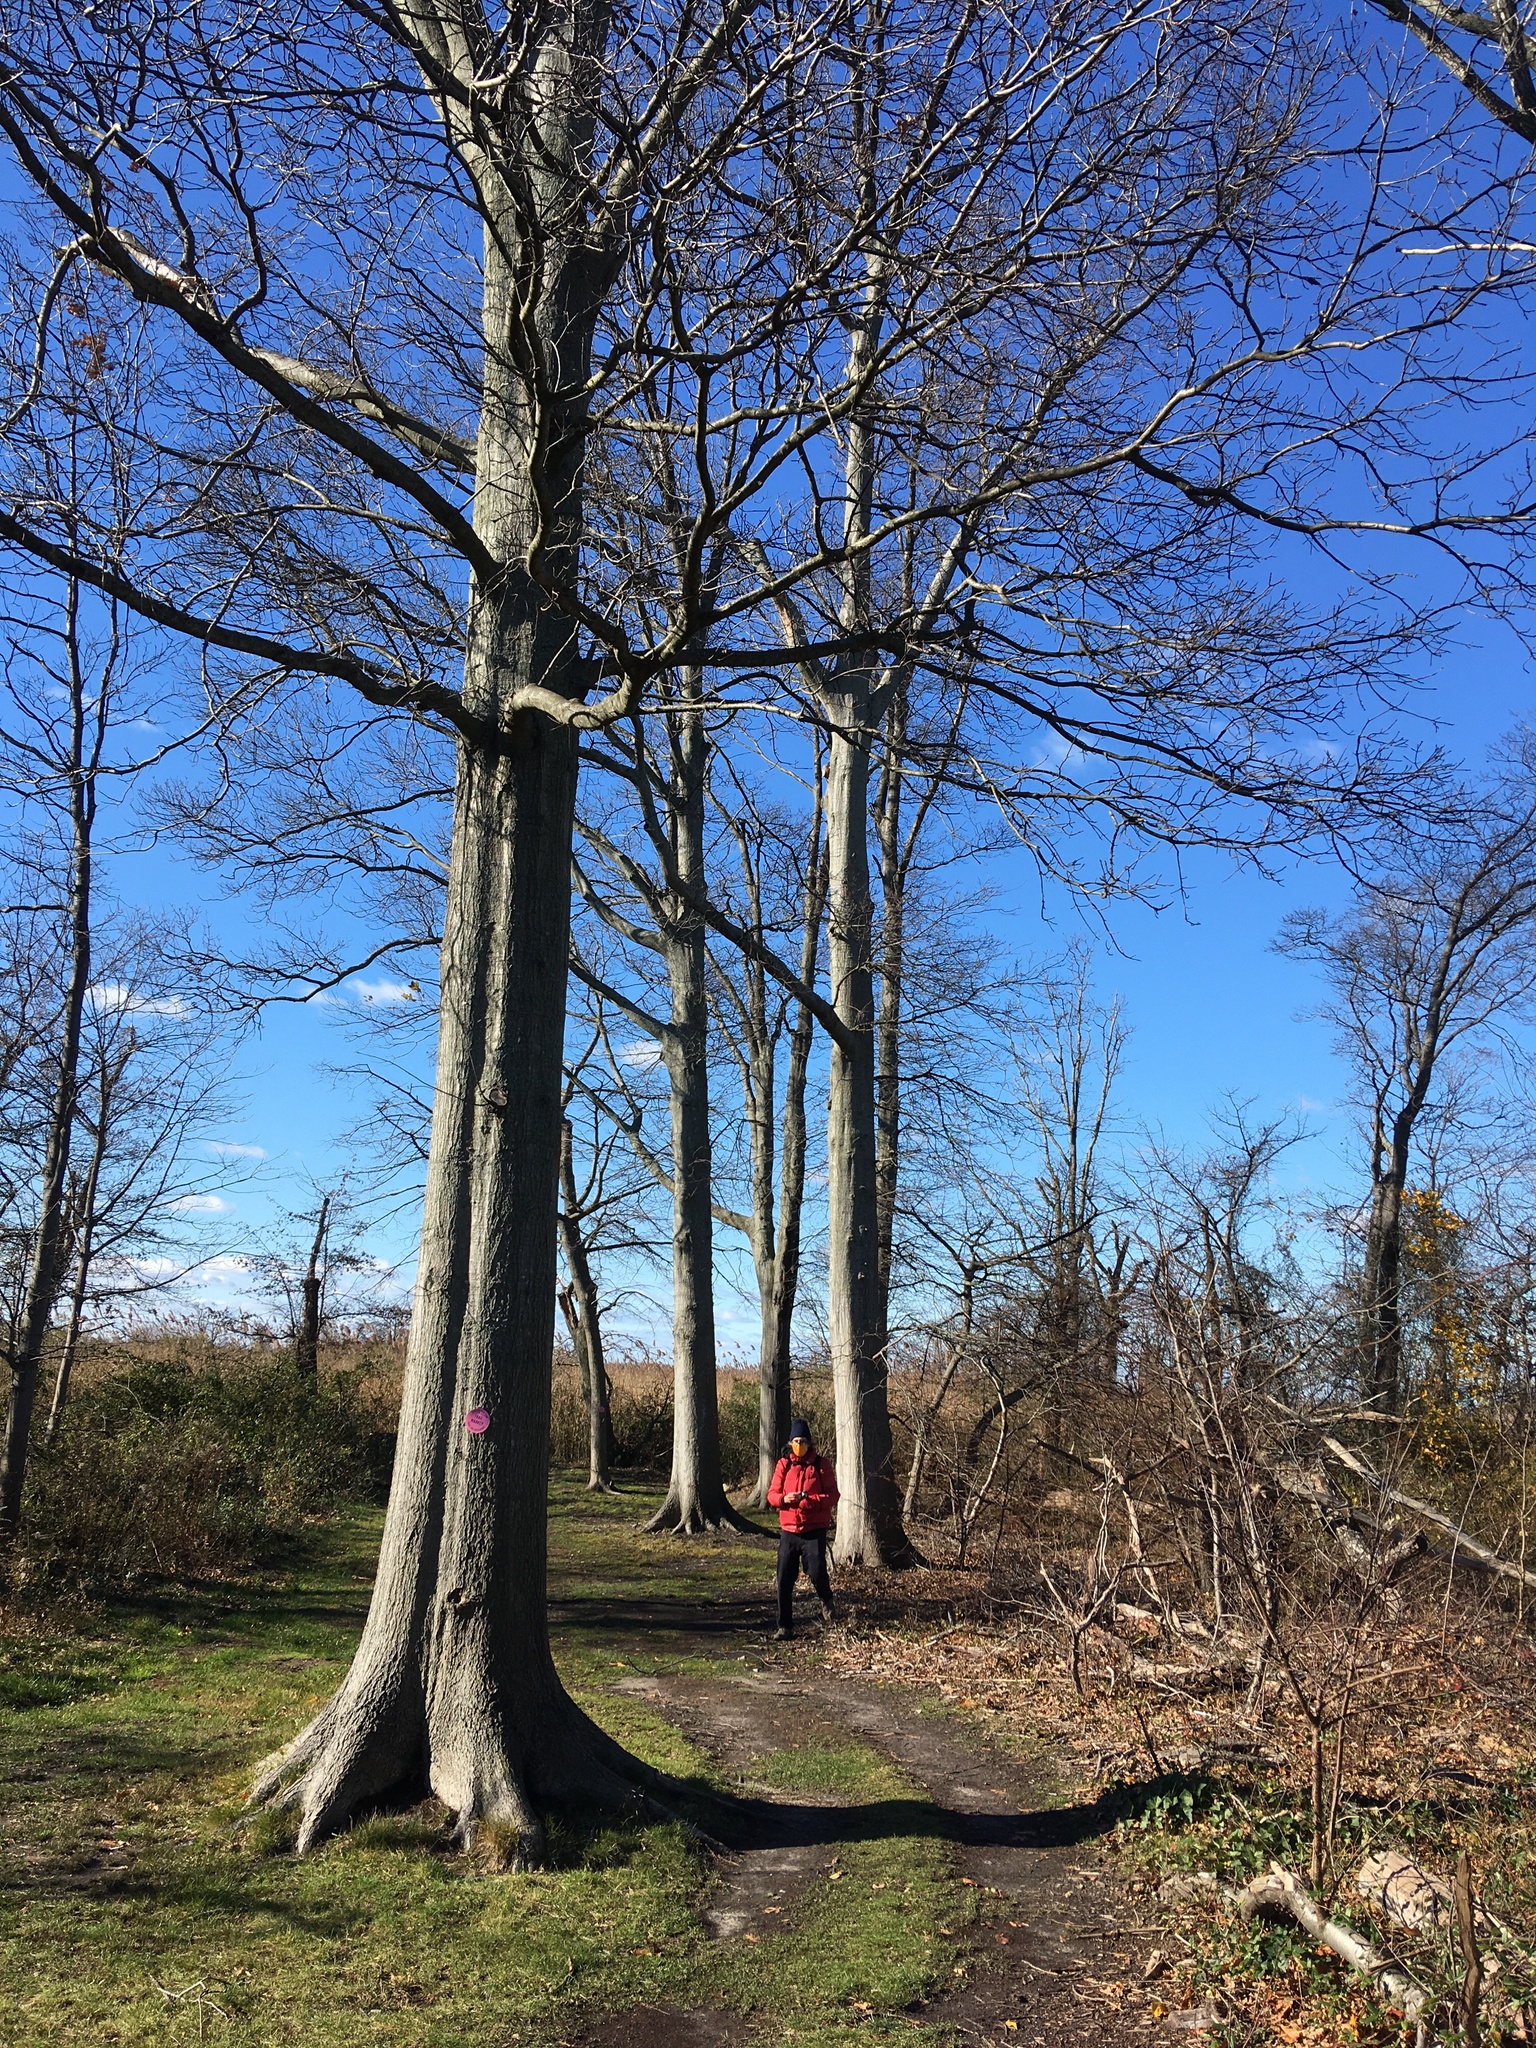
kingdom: Plantae
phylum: Tracheophyta
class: Magnoliopsida
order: Fagales
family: Fagaceae
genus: Quercus
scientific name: Quercus palustris
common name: Pin oak
